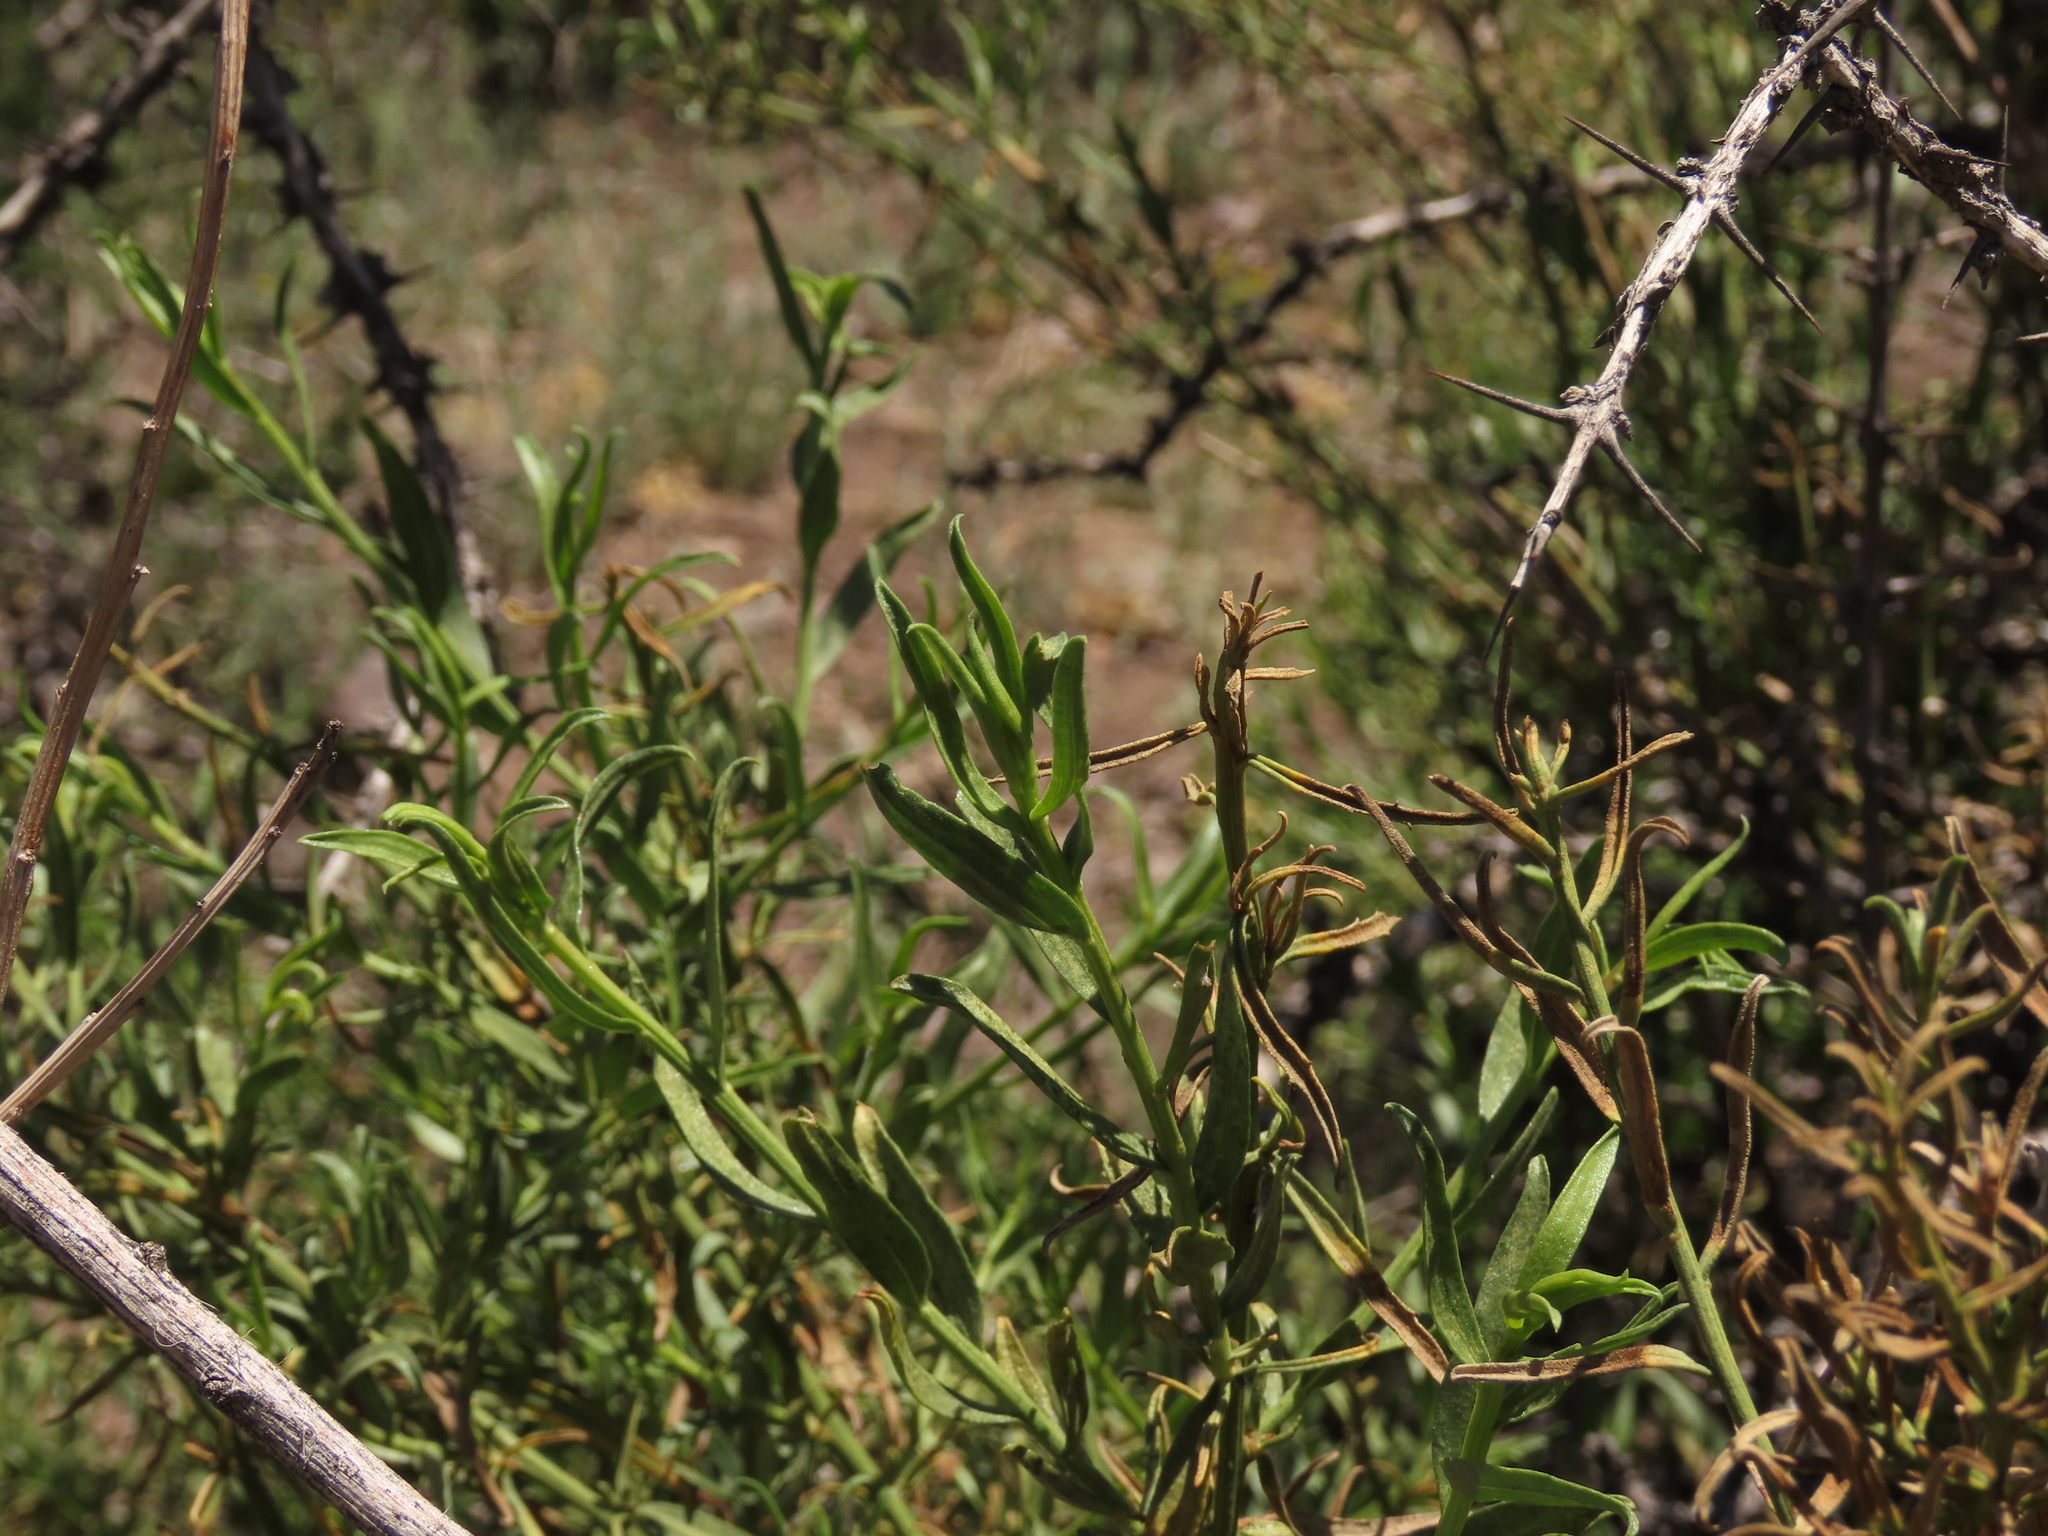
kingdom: Plantae
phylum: Tracheophyta
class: Magnoliopsida
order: Asterales
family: Asteraceae
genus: Baccharis
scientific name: Baccharis paniculata
